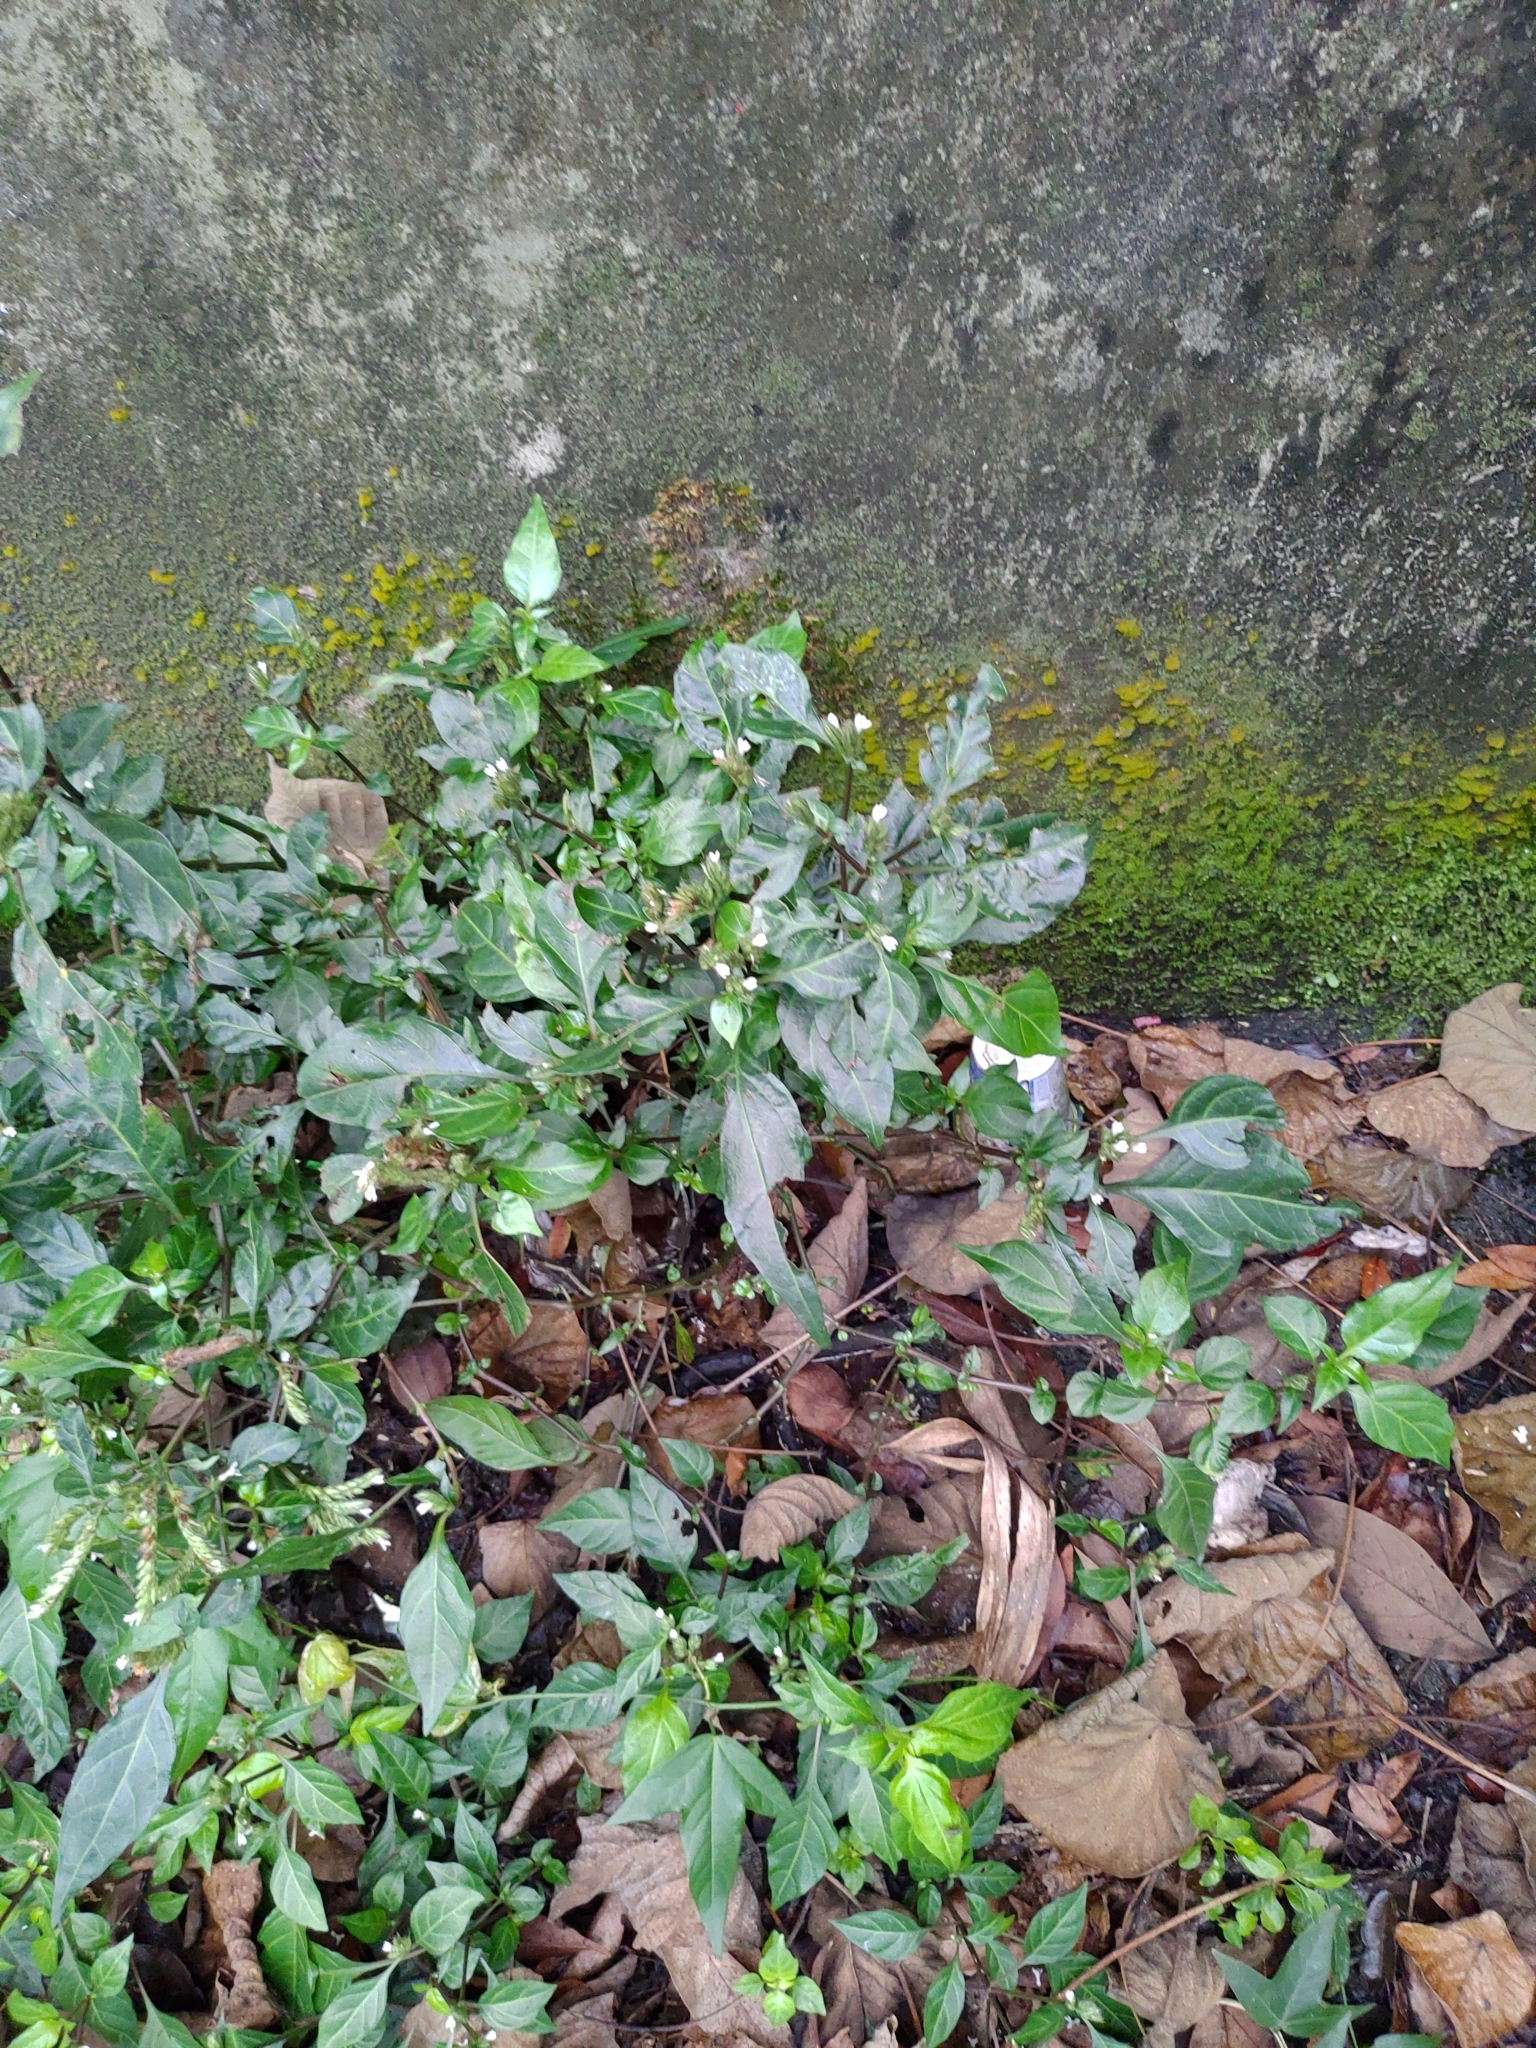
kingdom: Plantae
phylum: Tracheophyta
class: Magnoliopsida
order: Lamiales
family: Acanthaceae
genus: Lepidagathis
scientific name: Lepidagathis formosensis
